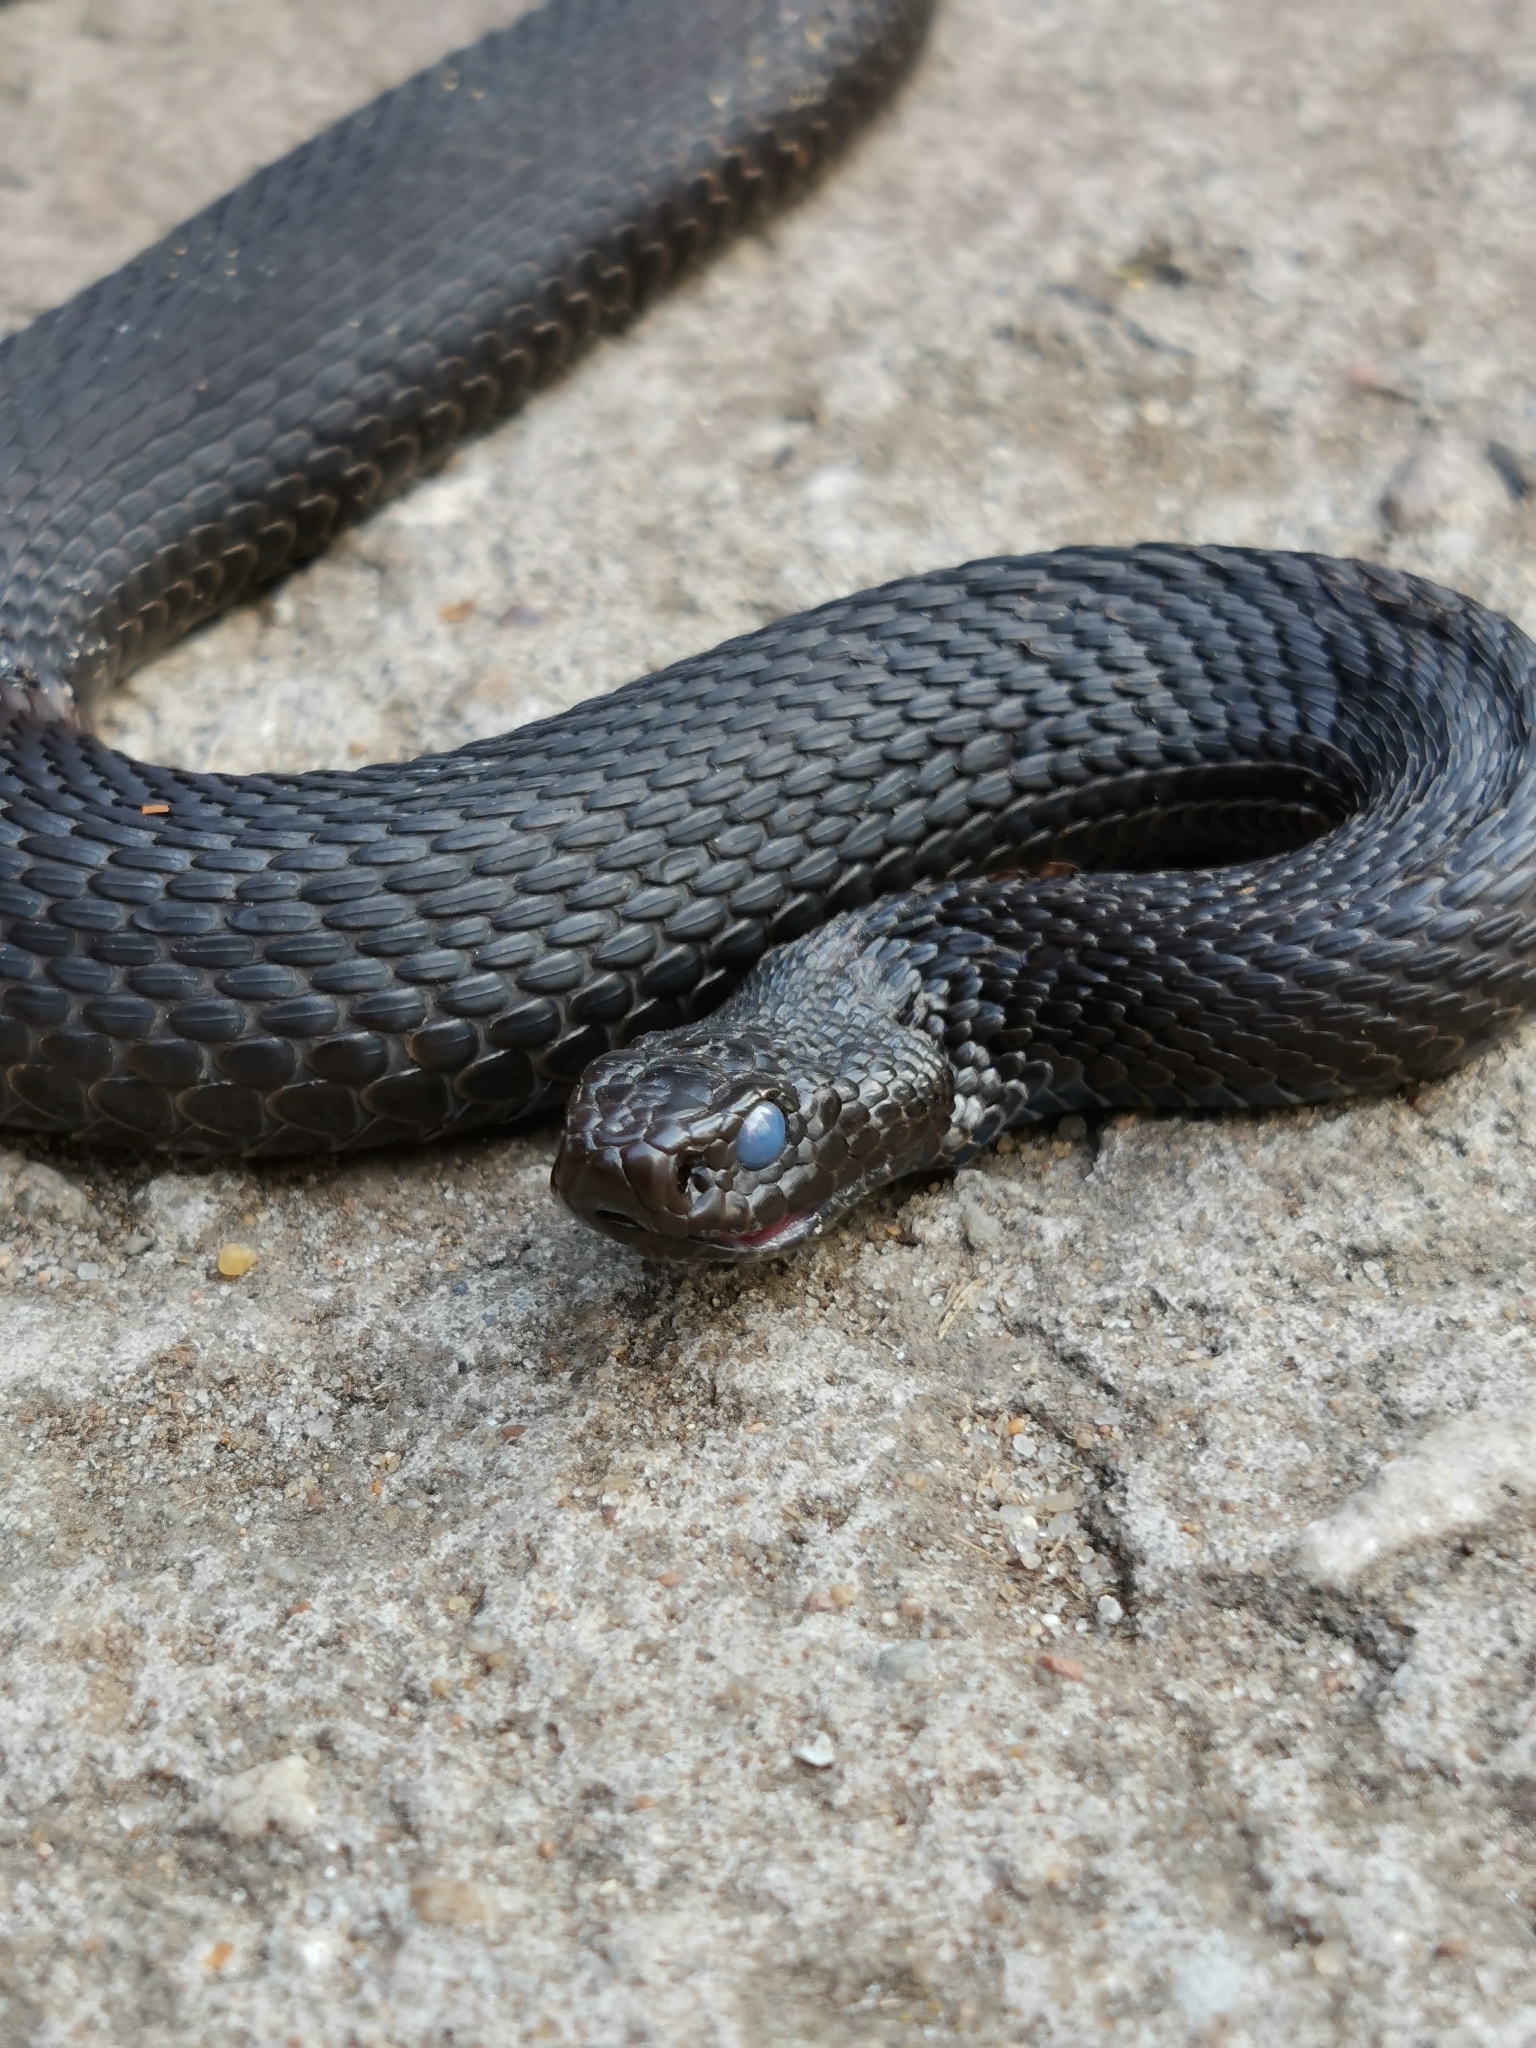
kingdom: Animalia
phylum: Chordata
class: Squamata
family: Viperidae
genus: Vipera
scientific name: Vipera berus
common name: Adder
